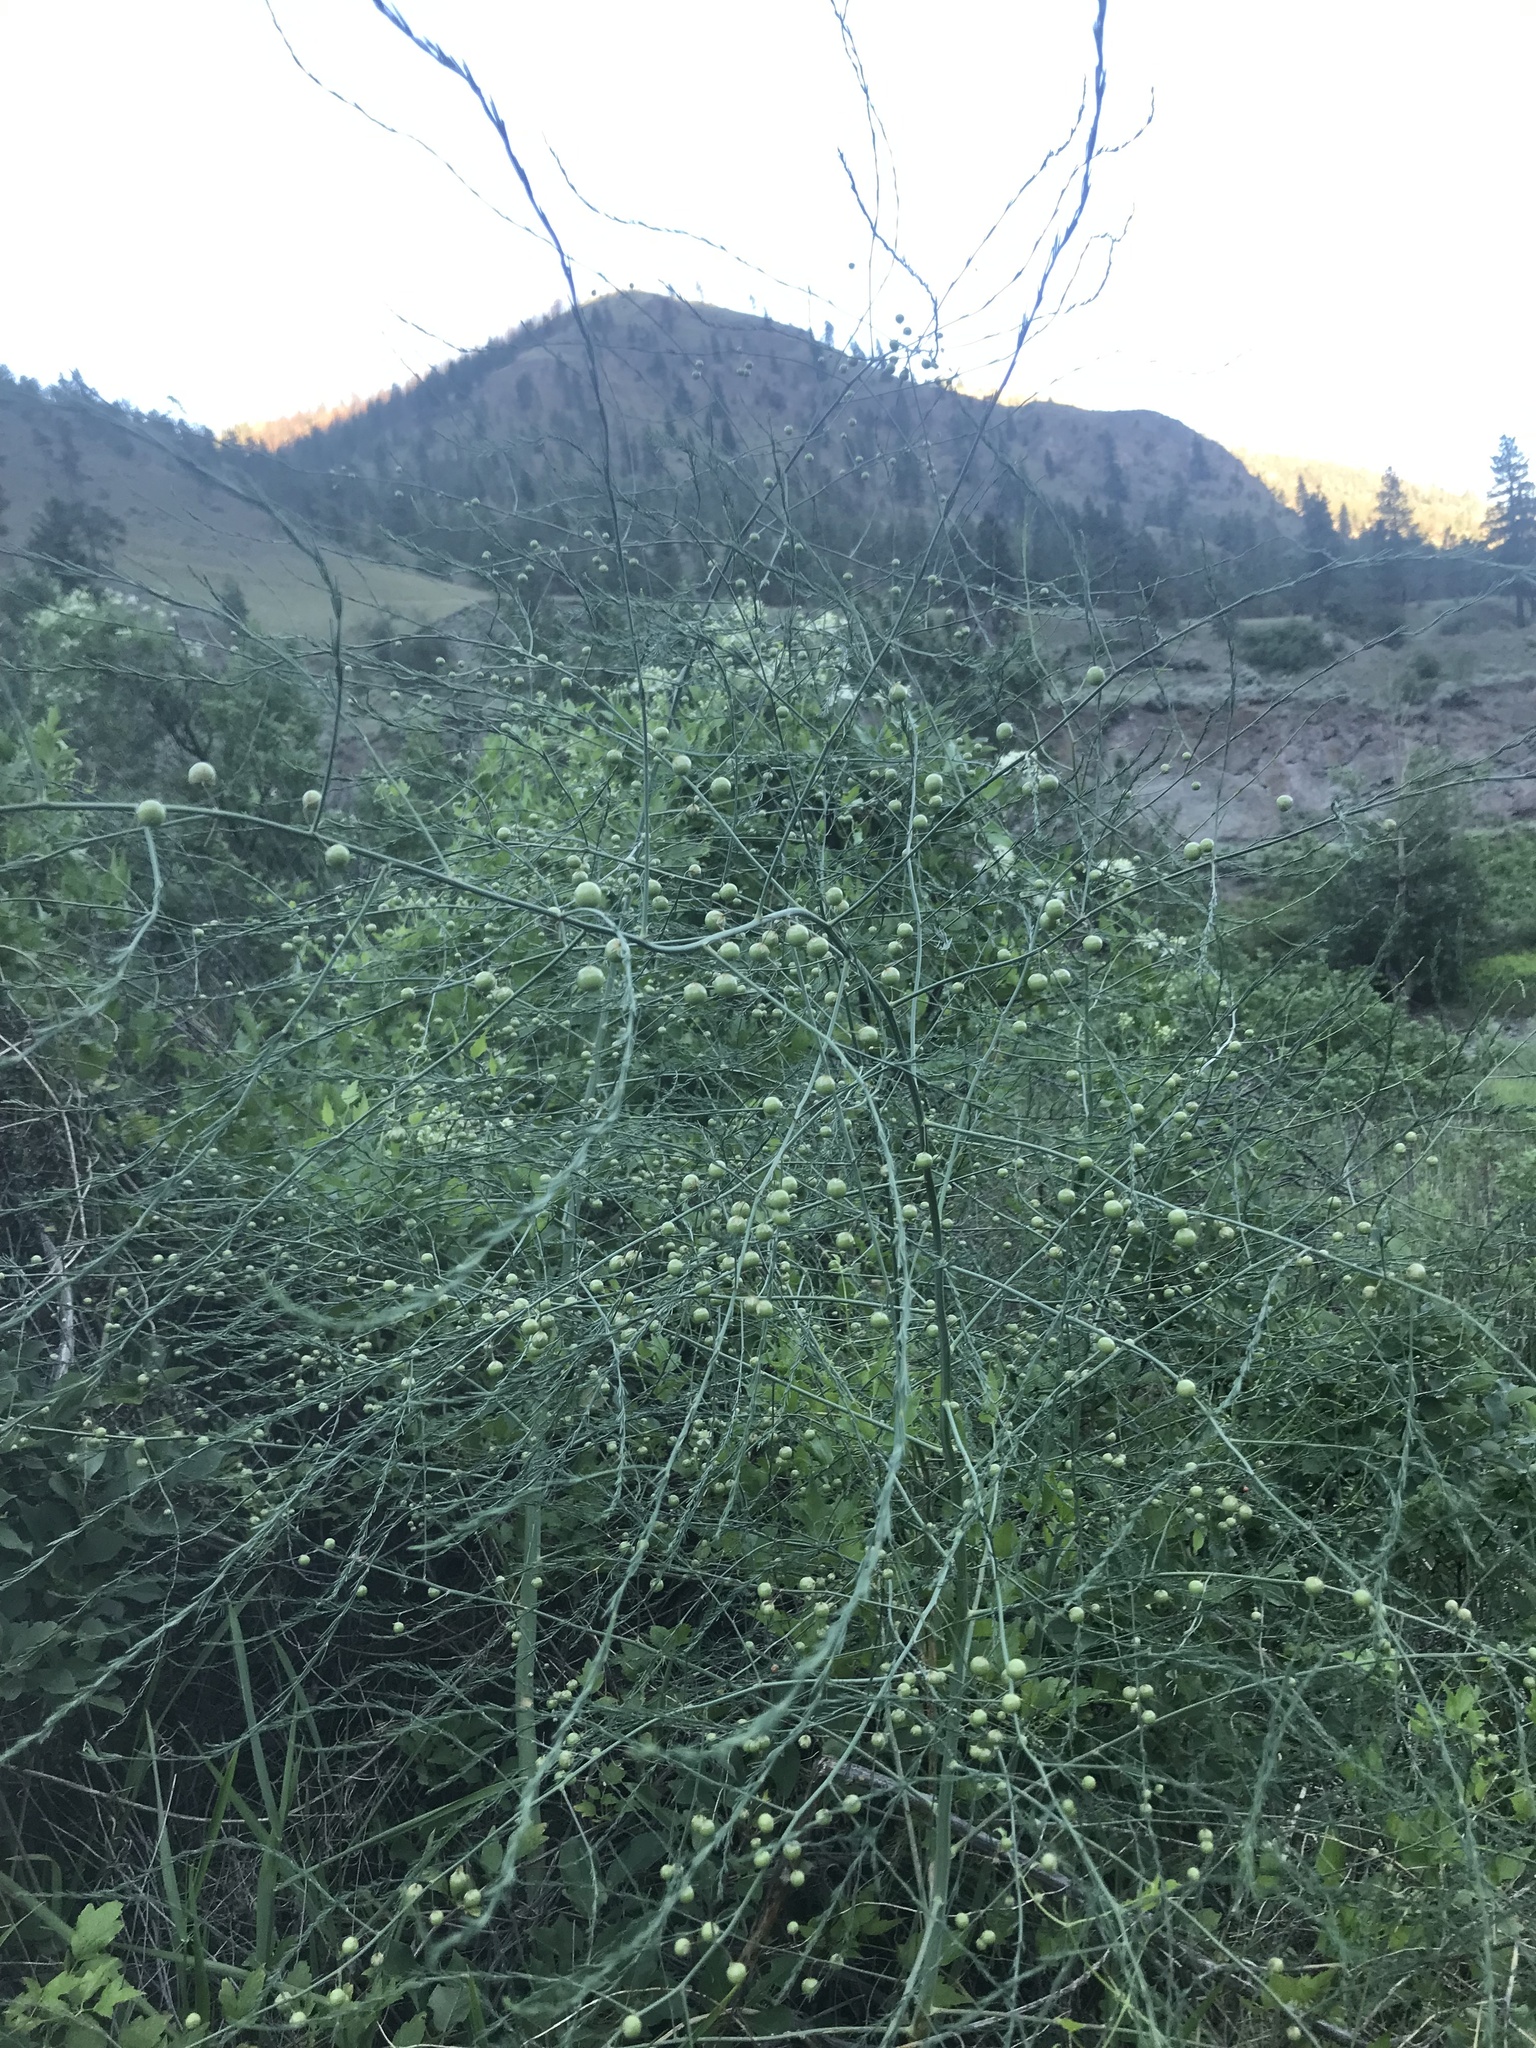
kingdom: Plantae
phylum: Tracheophyta
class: Liliopsida
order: Asparagales
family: Asparagaceae
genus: Asparagus
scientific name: Asparagus officinalis
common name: Garden asparagus
